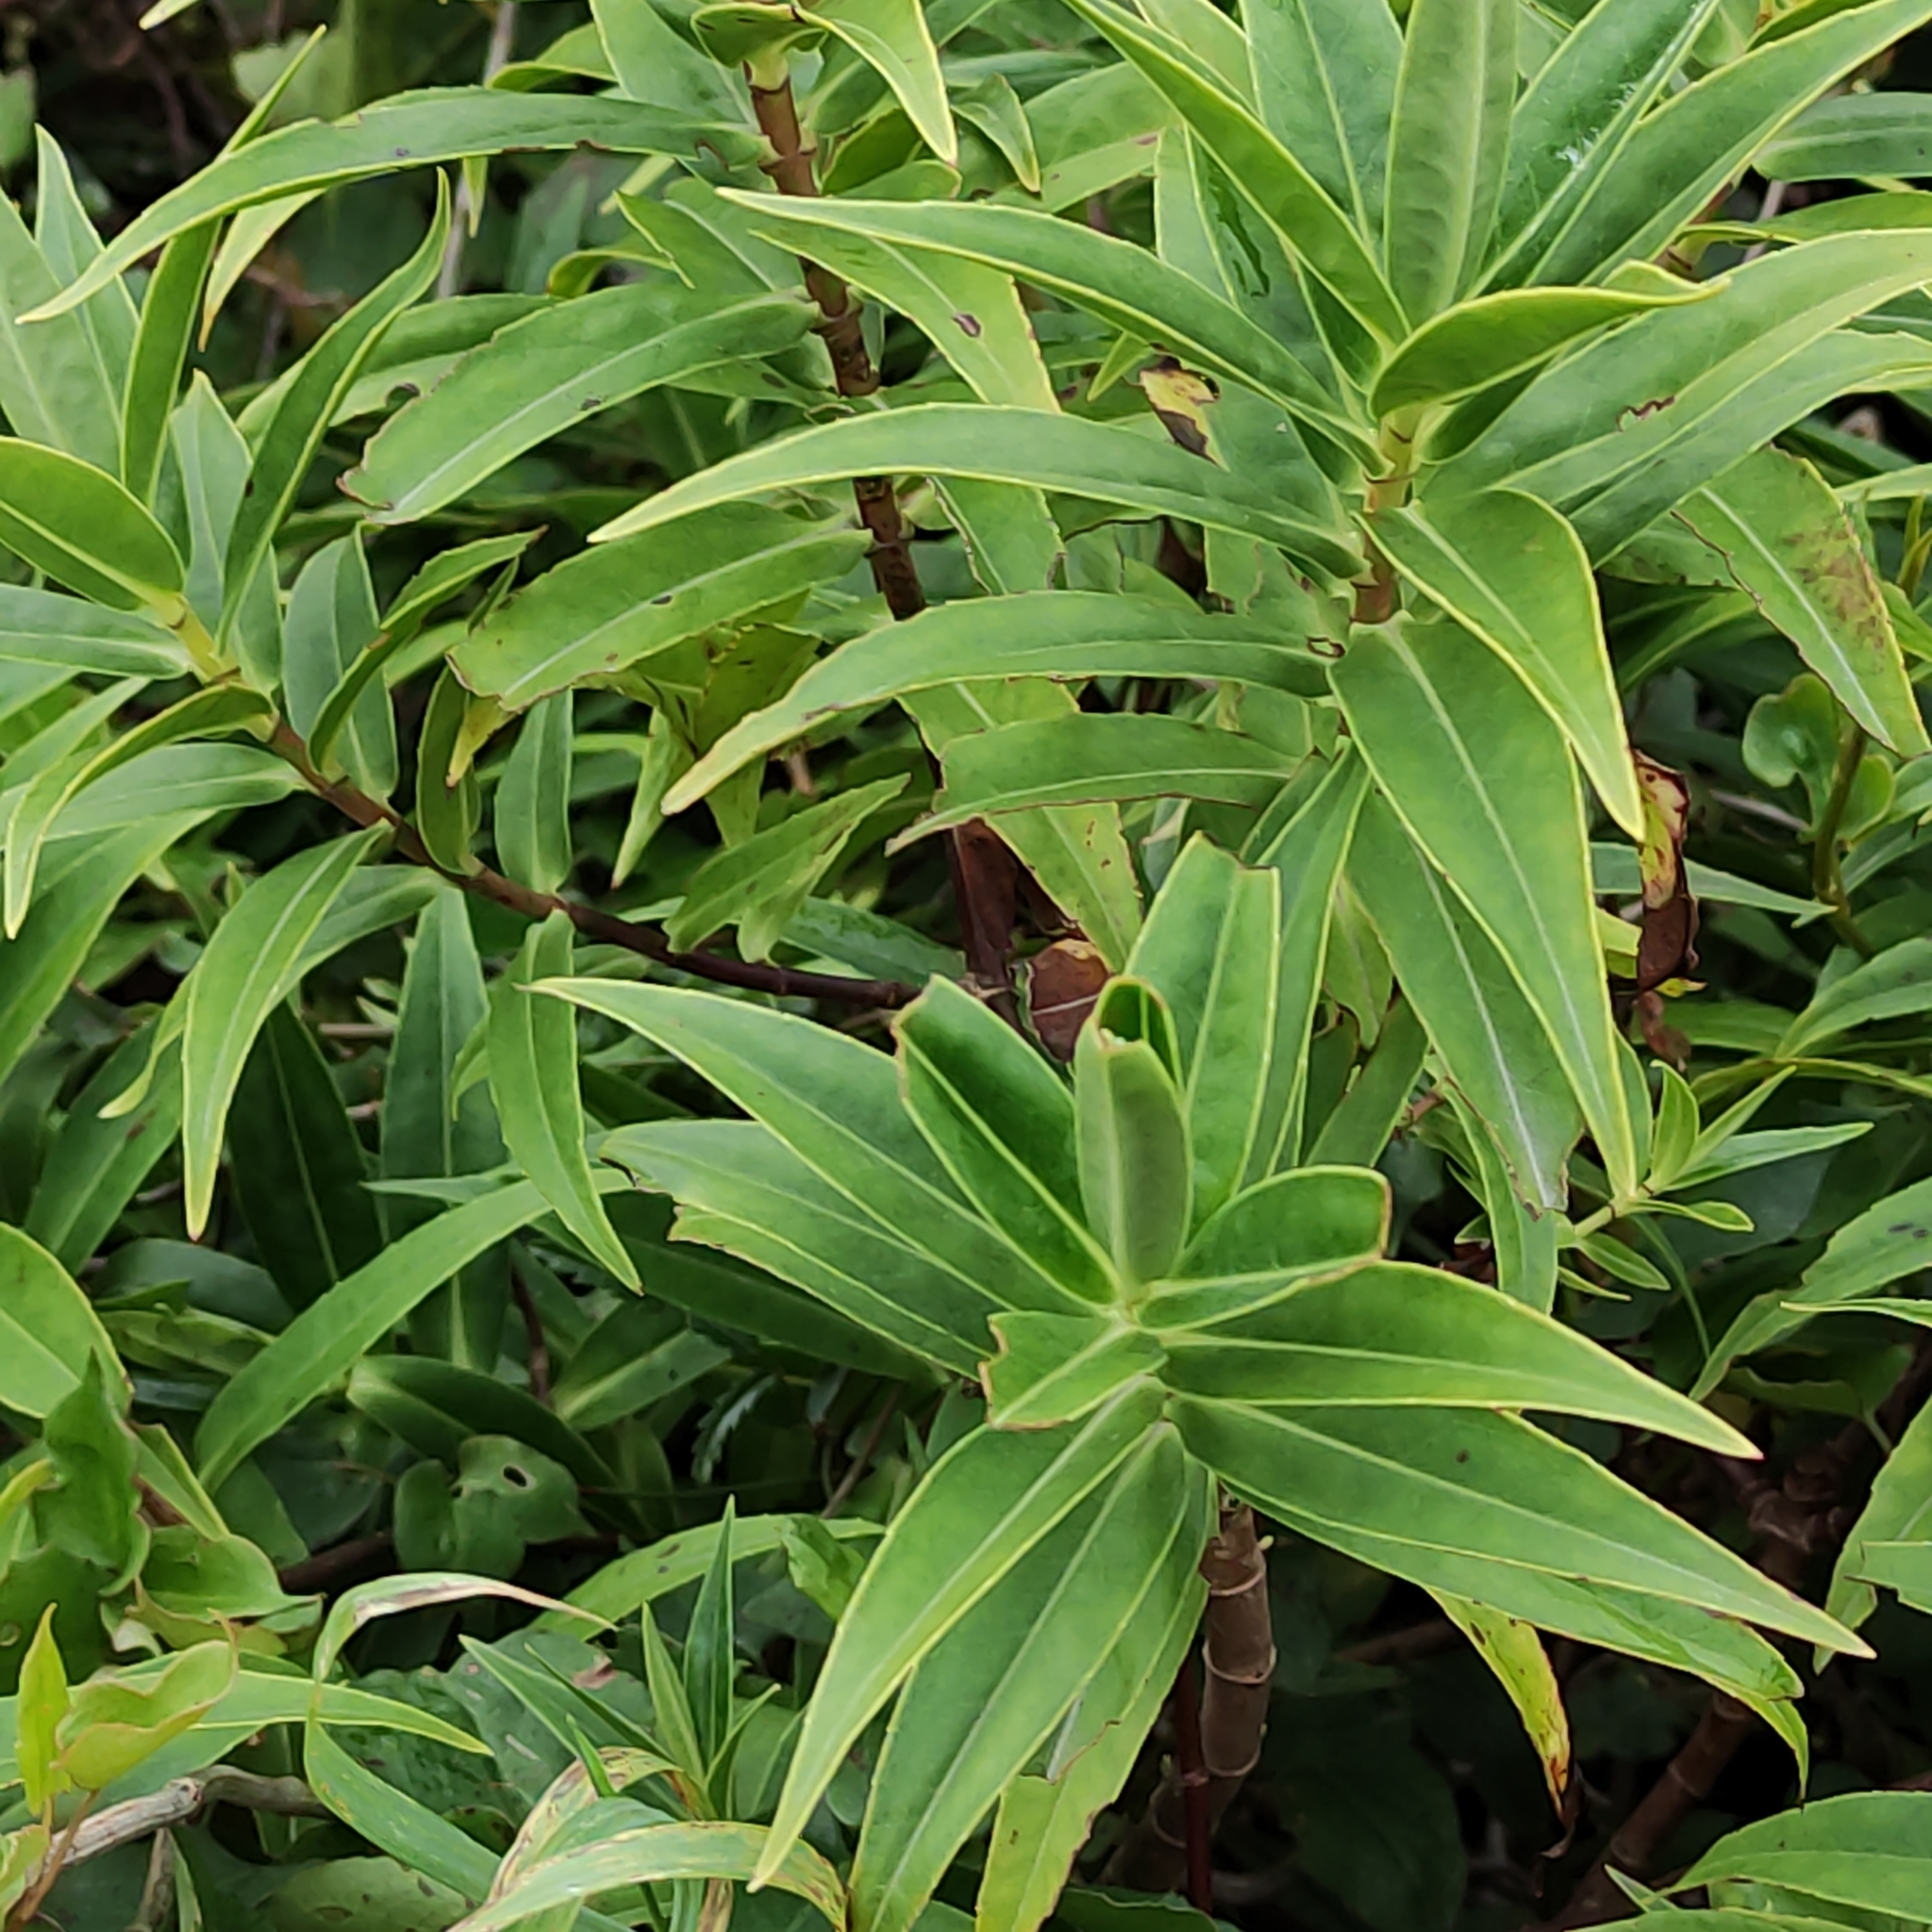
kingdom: Plantae
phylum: Tracheophyta
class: Magnoliopsida
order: Lamiales
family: Plantaginaceae
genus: Veronica
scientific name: Veronica salicifolia
